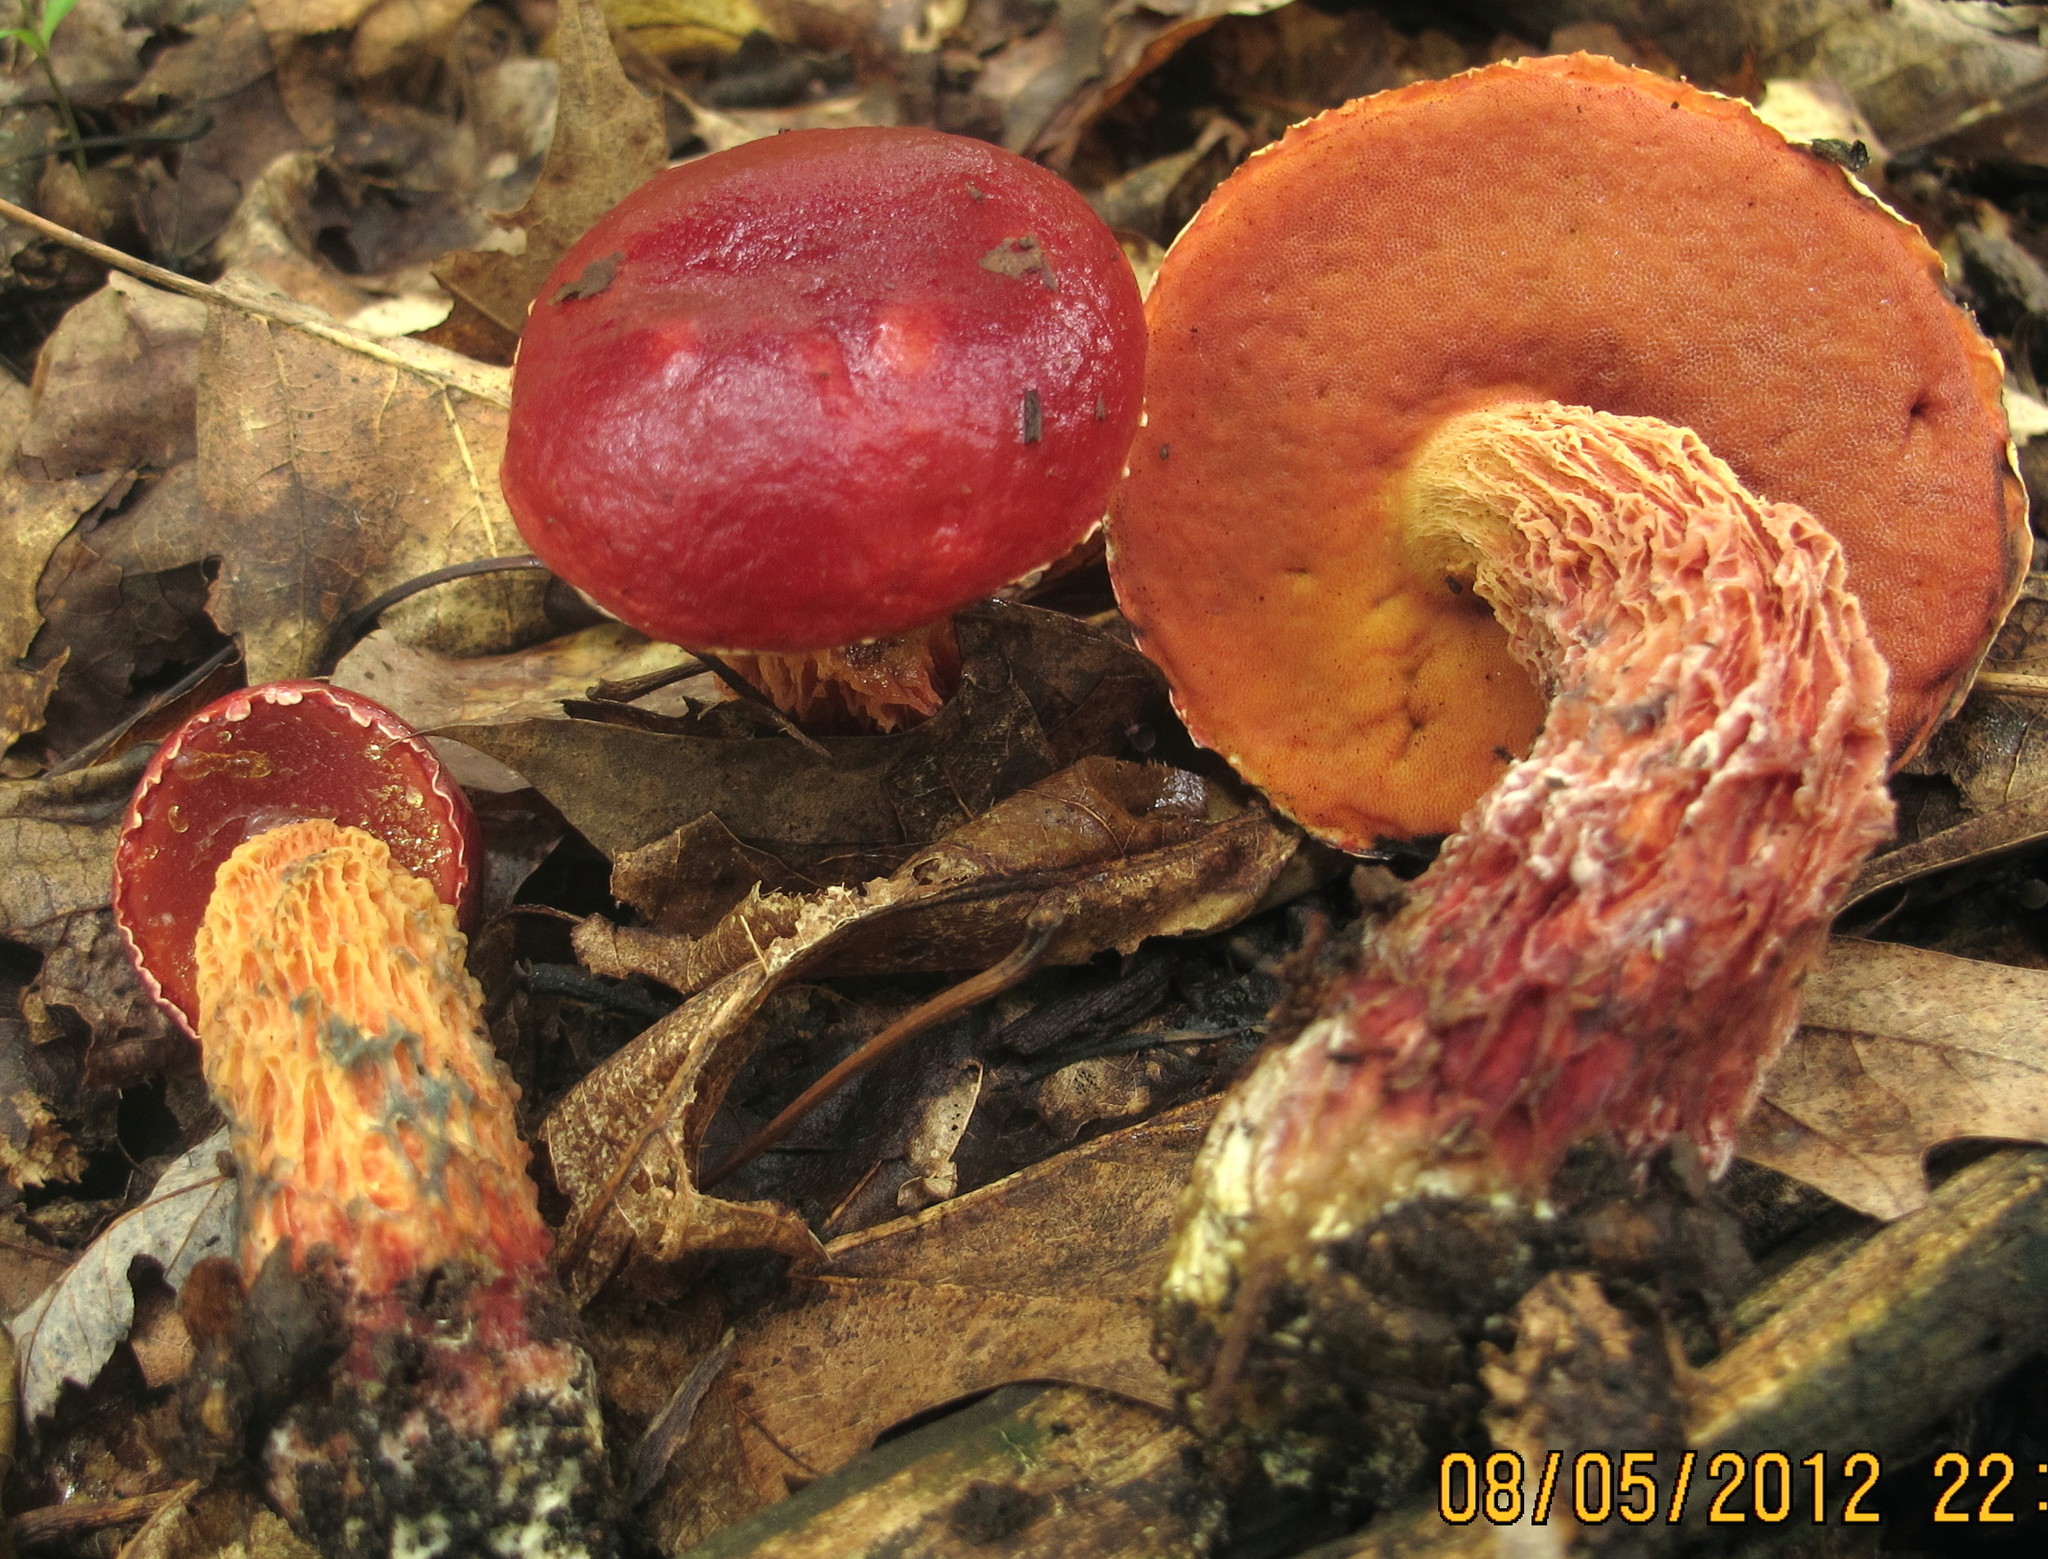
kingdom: Fungi
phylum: Basidiomycota
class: Agaricomycetes
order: Boletales
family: Boletaceae
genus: Butyriboletus
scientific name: Butyriboletus frostii
